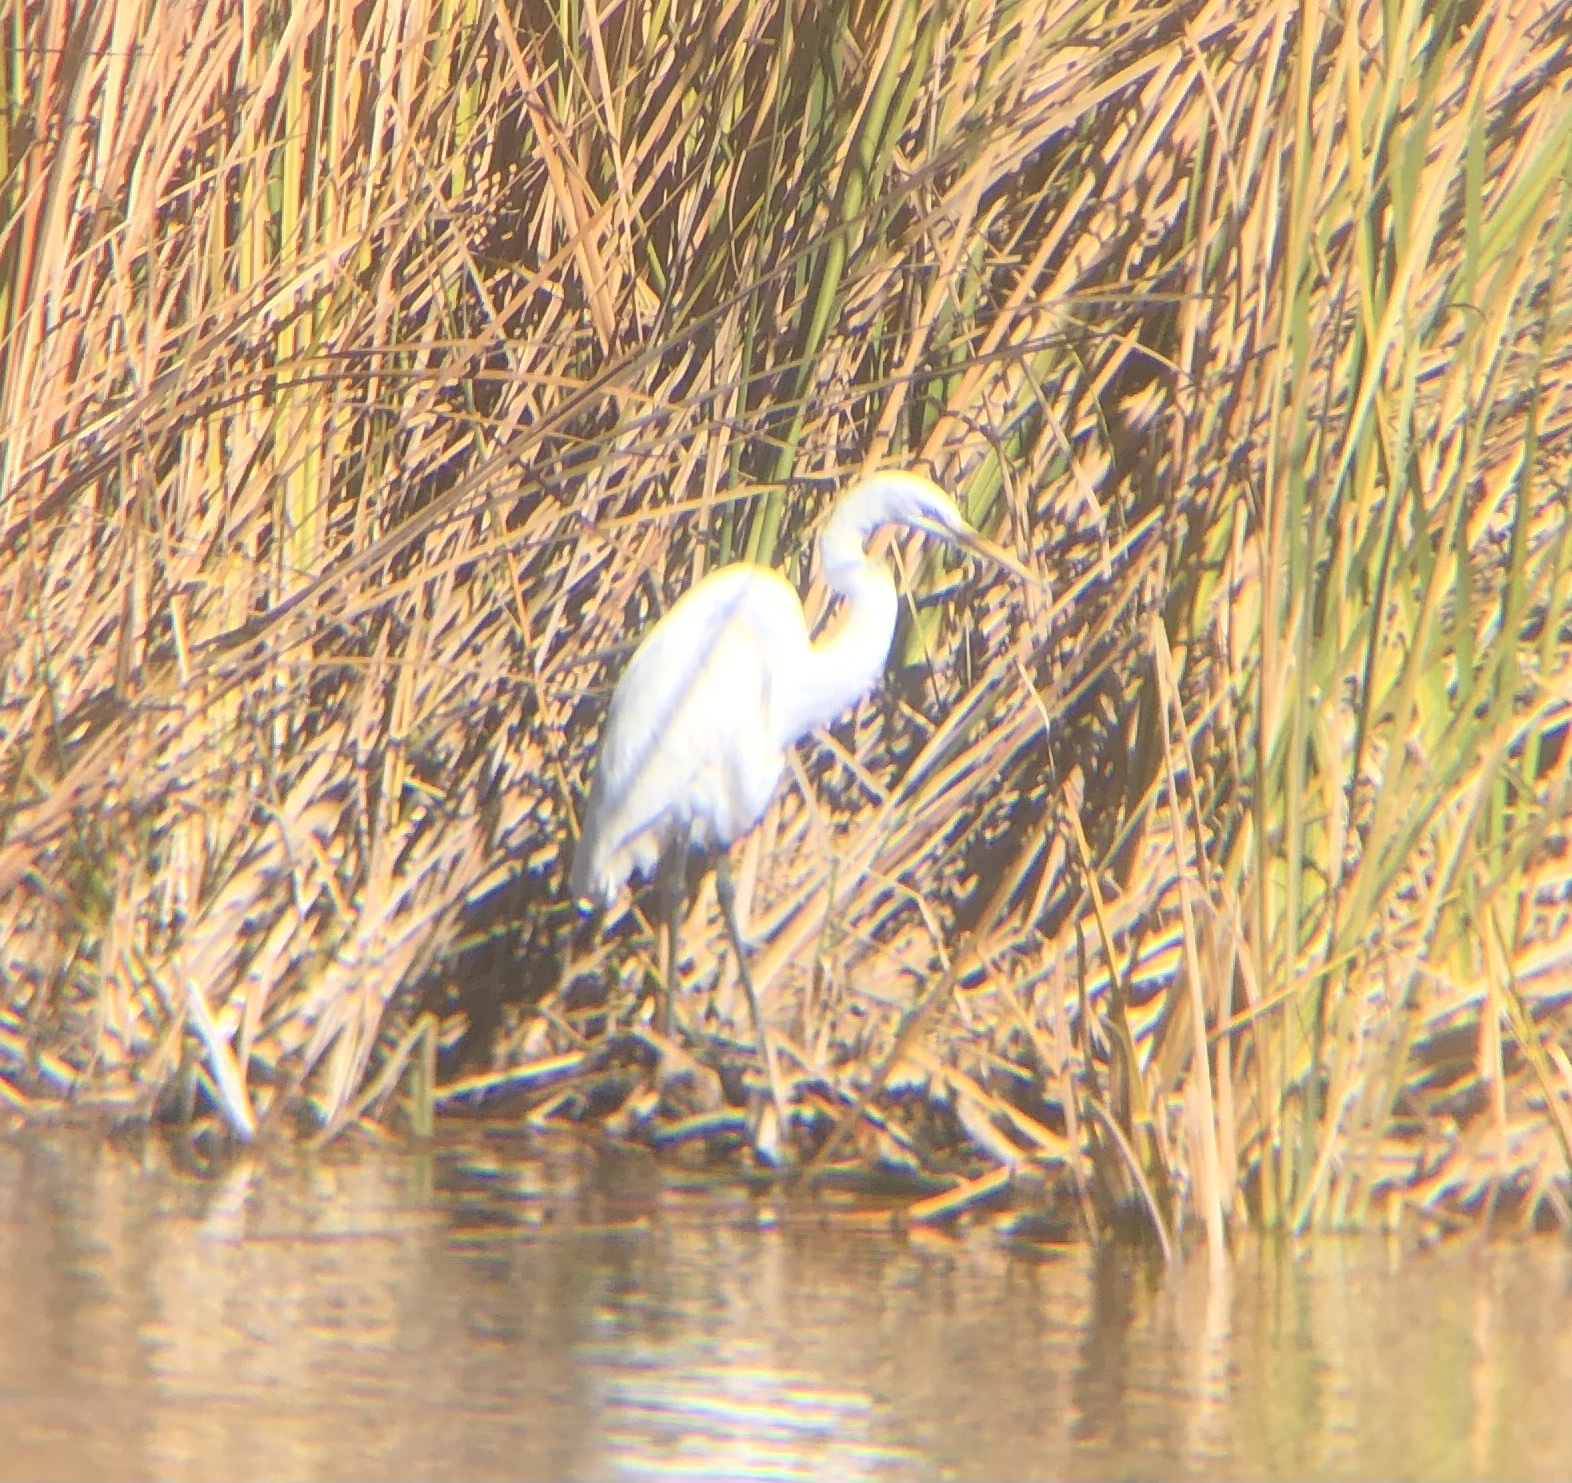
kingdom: Animalia
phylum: Chordata
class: Aves
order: Pelecaniformes
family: Ardeidae
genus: Ardea
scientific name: Ardea alba
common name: Great egret
